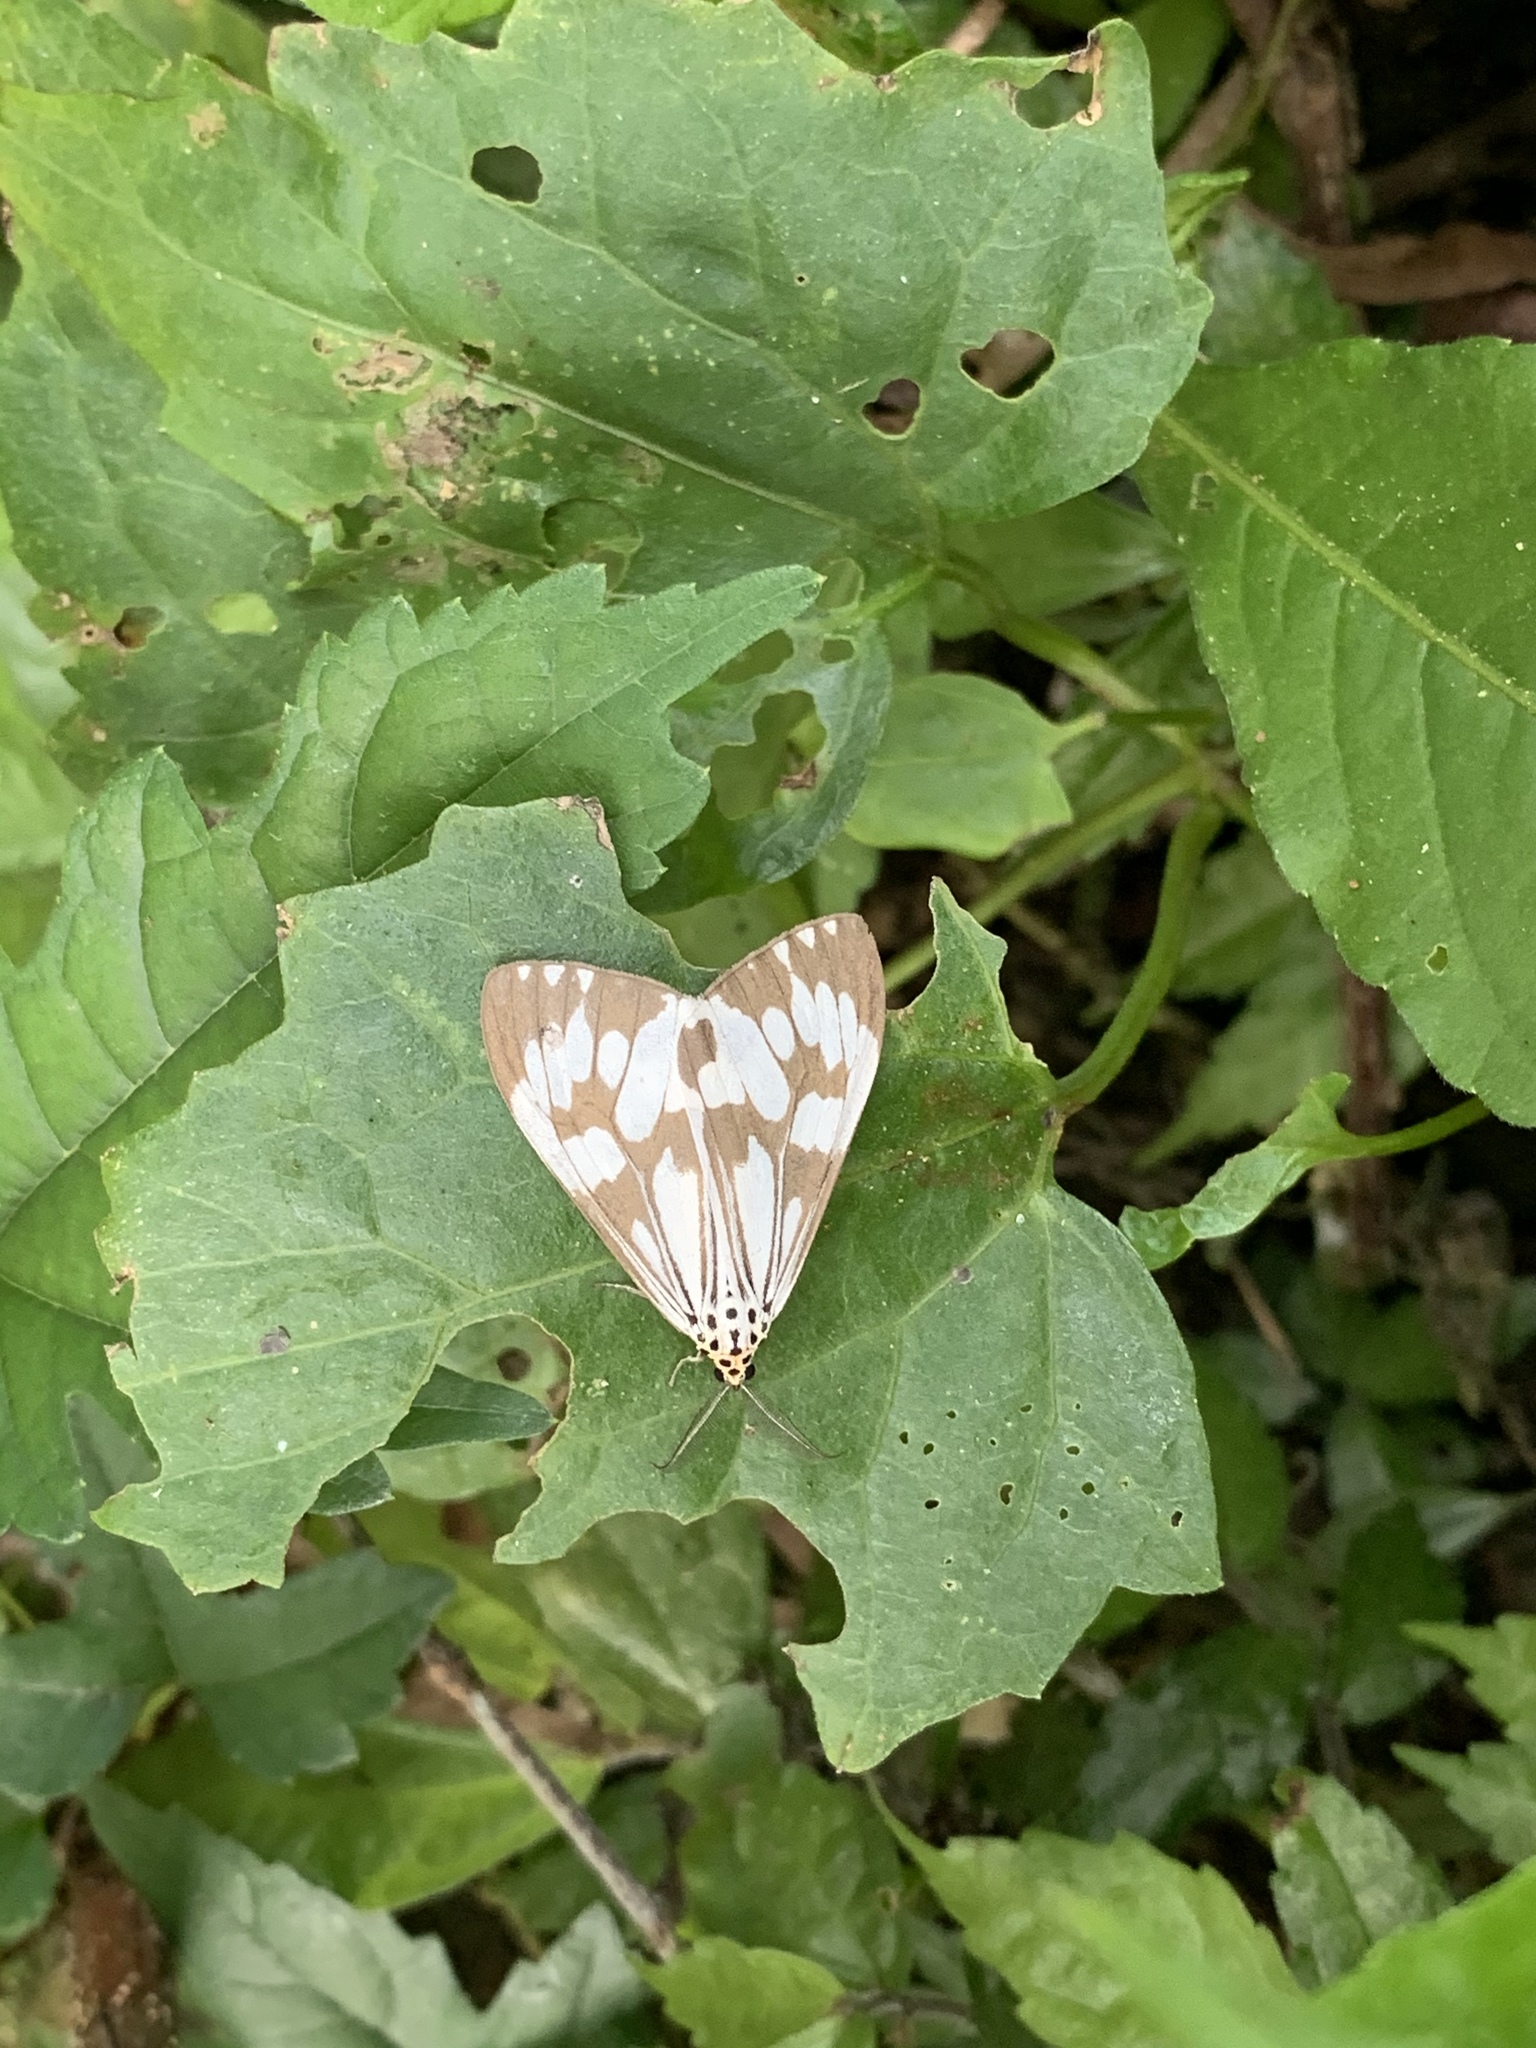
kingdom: Animalia
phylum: Arthropoda
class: Insecta
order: Lepidoptera
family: Erebidae
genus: Nyctemera
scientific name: Nyctemera adversata
